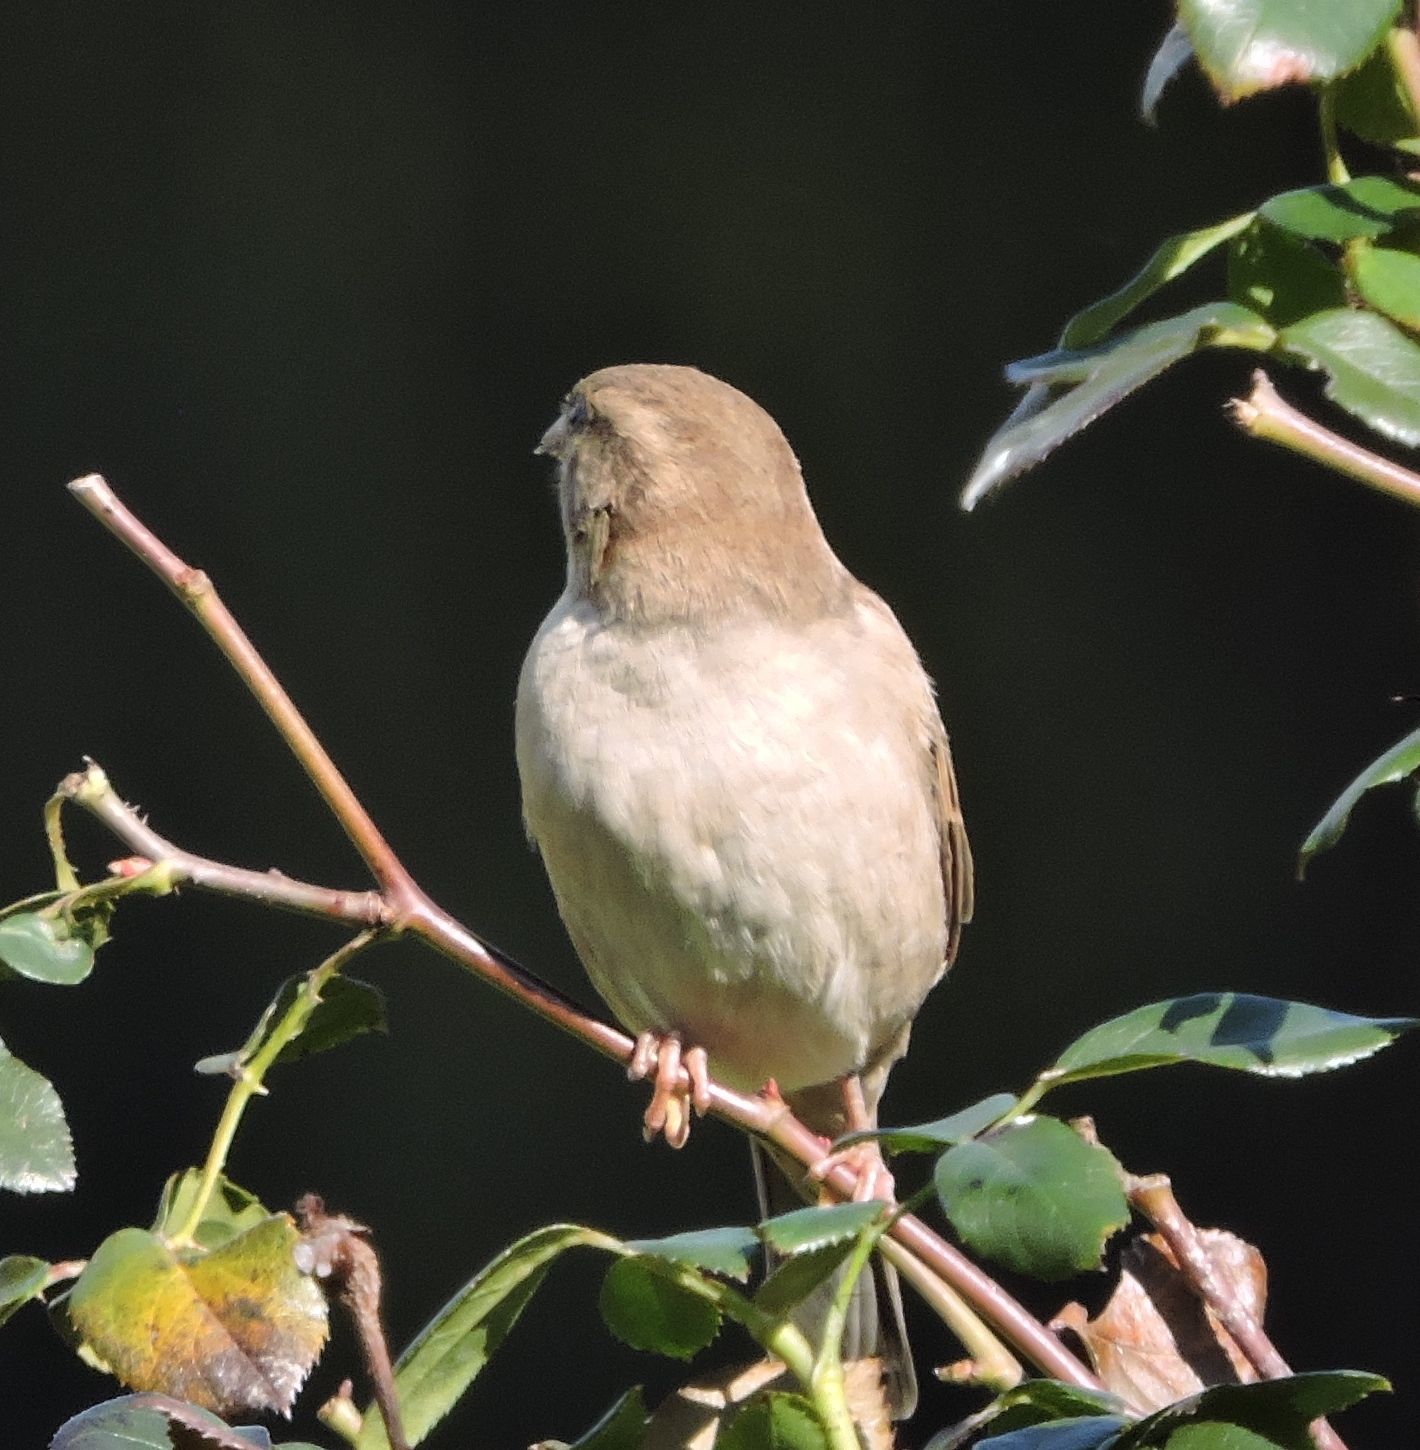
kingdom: Animalia
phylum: Chordata
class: Aves
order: Passeriformes
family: Passeridae
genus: Passer
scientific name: Passer domesticus
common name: House sparrow
